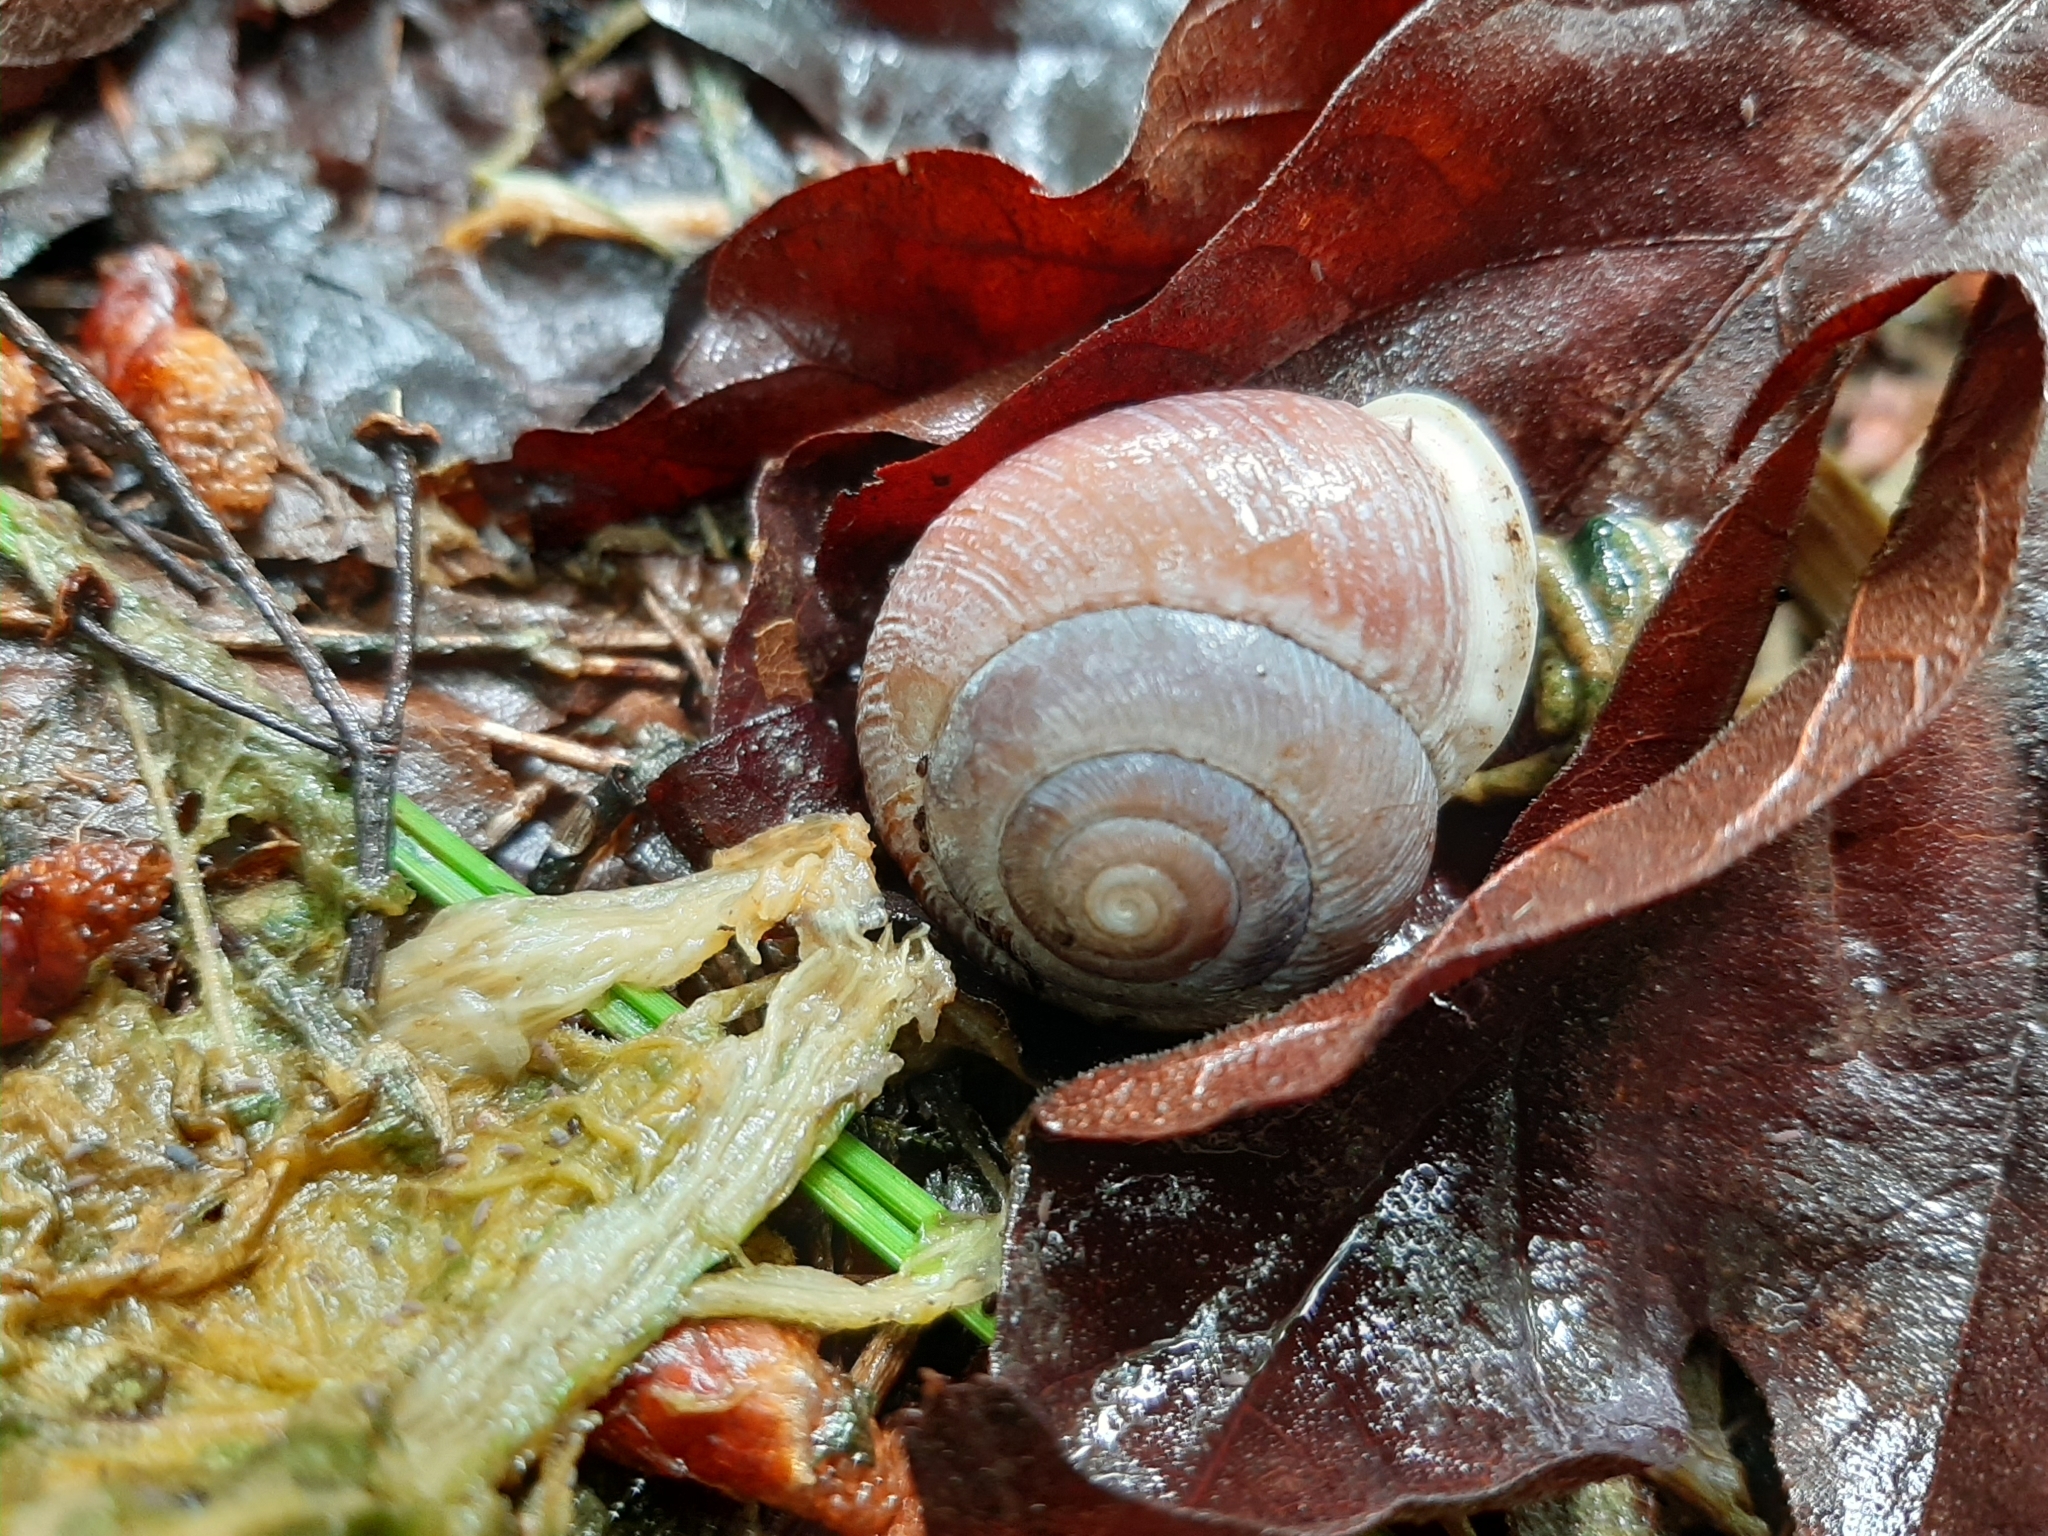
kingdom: Animalia
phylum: Mollusca
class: Gastropoda
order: Stylommatophora
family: Polygyridae
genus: Allogona
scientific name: Allogona townsendiana
